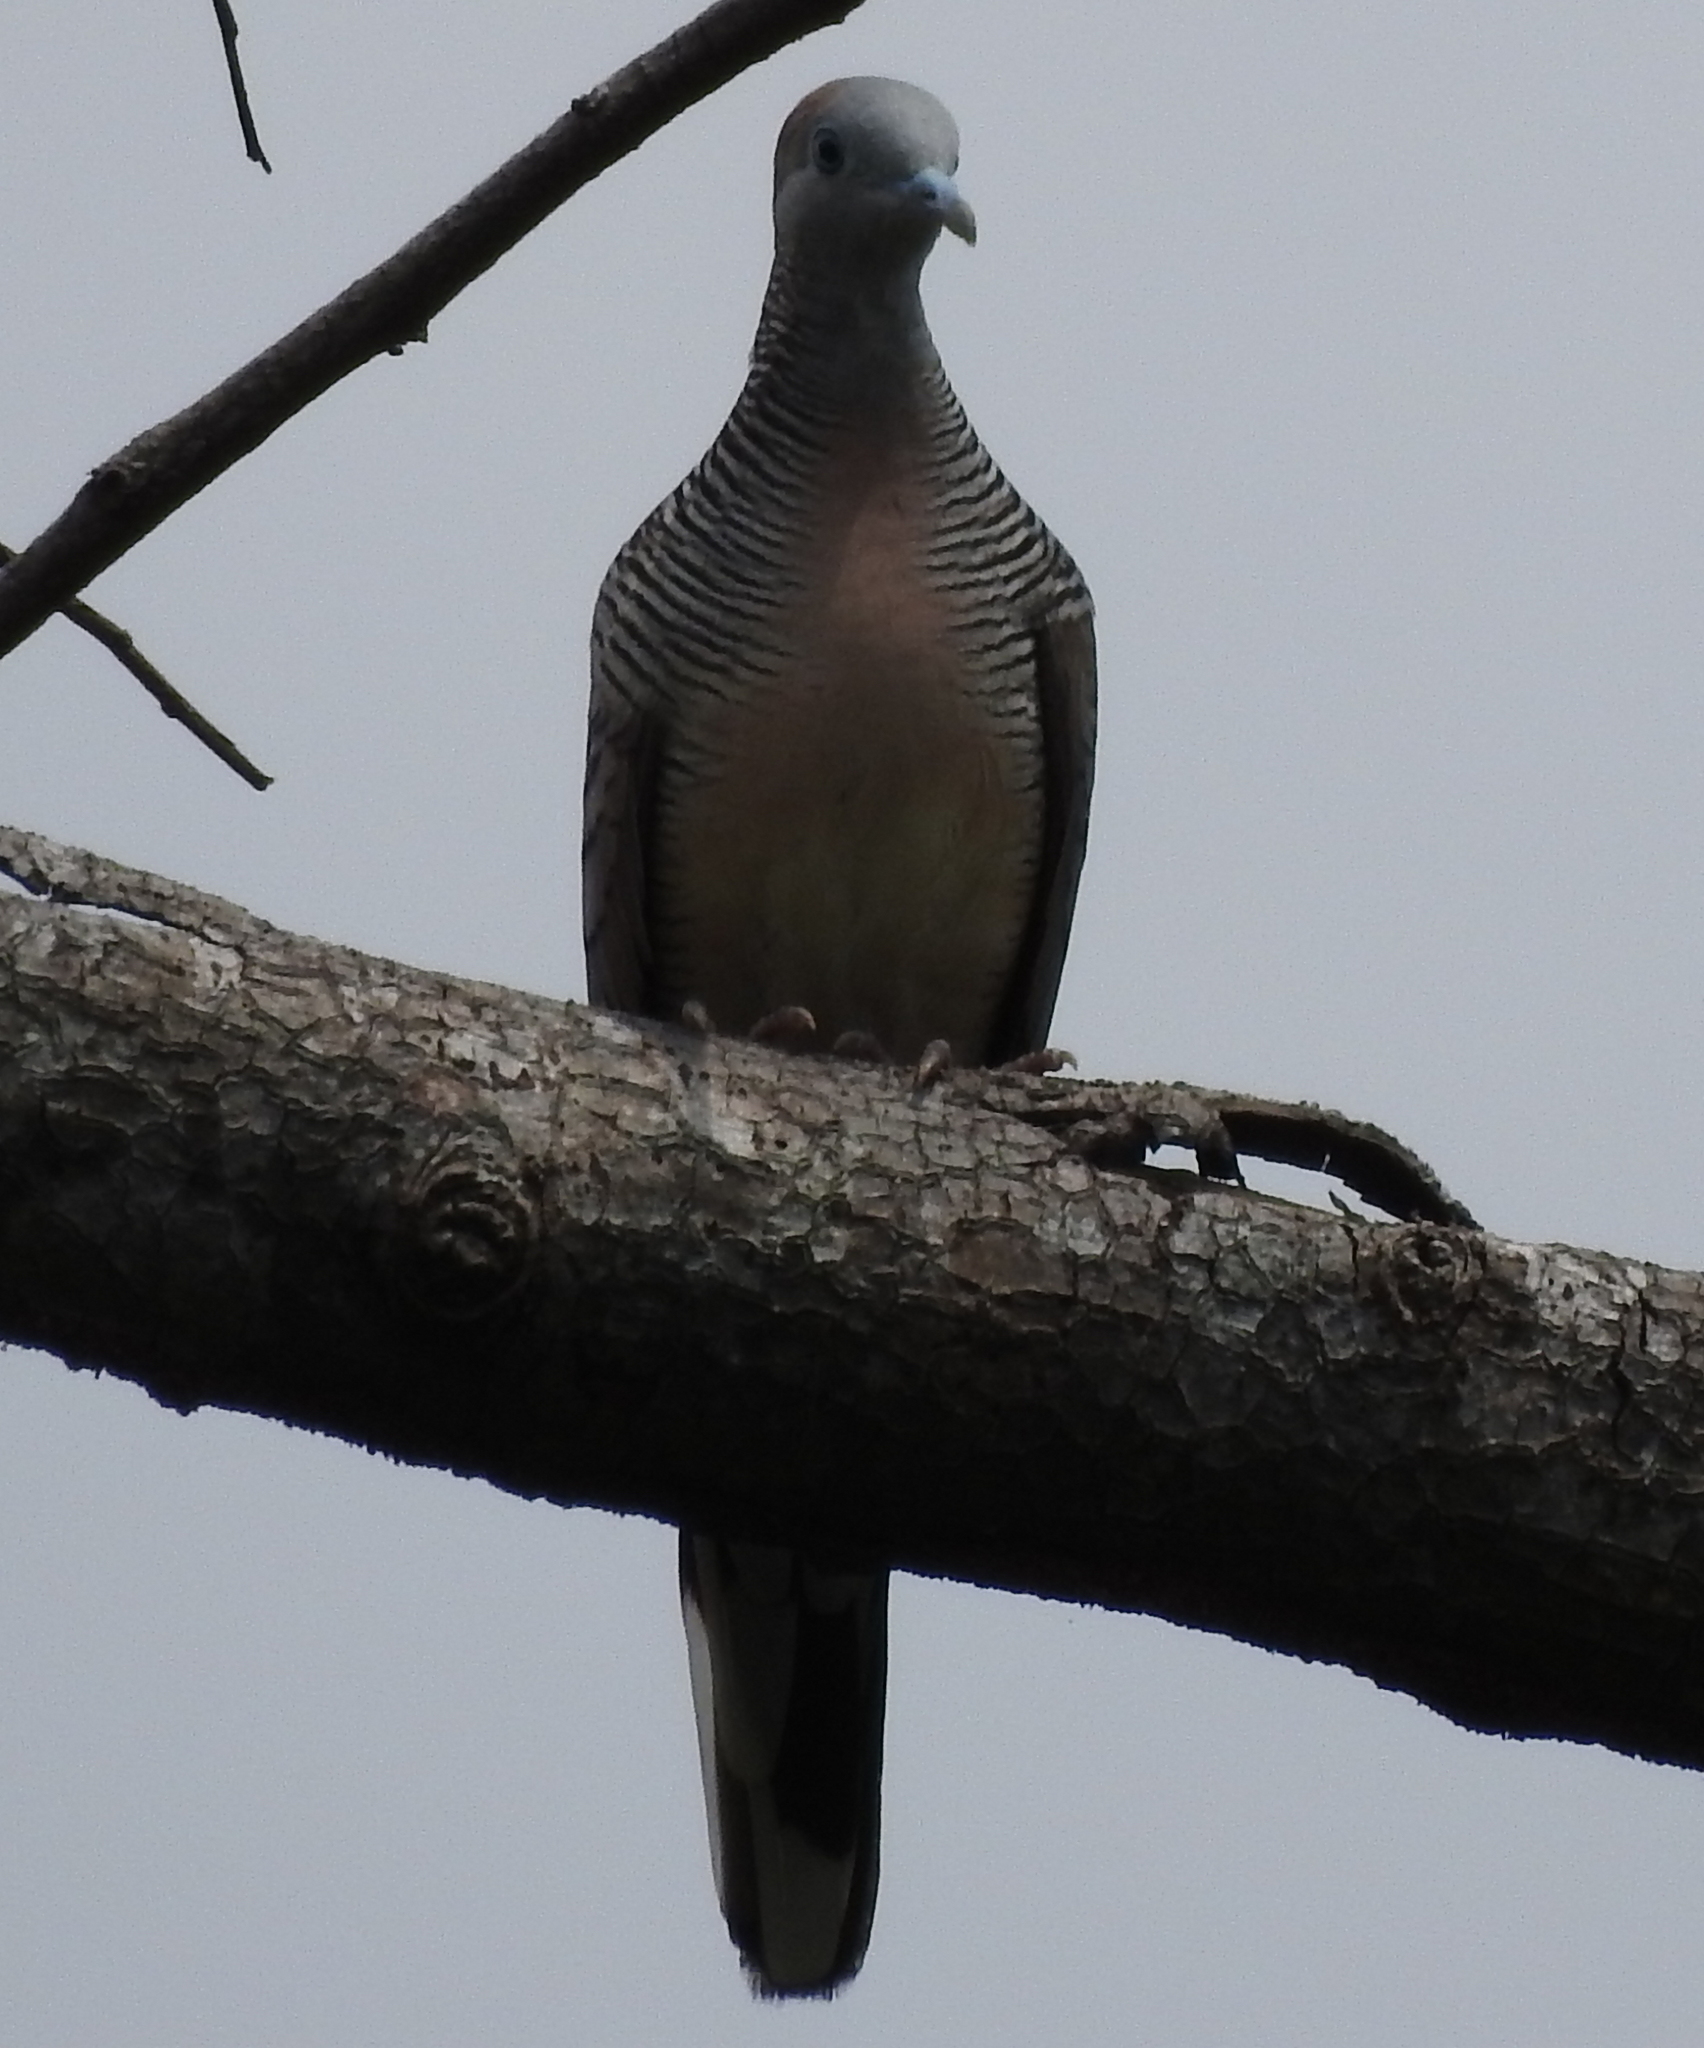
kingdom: Animalia
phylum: Chordata
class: Aves
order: Columbiformes
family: Columbidae
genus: Geopelia
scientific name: Geopelia striata
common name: Zebra dove
